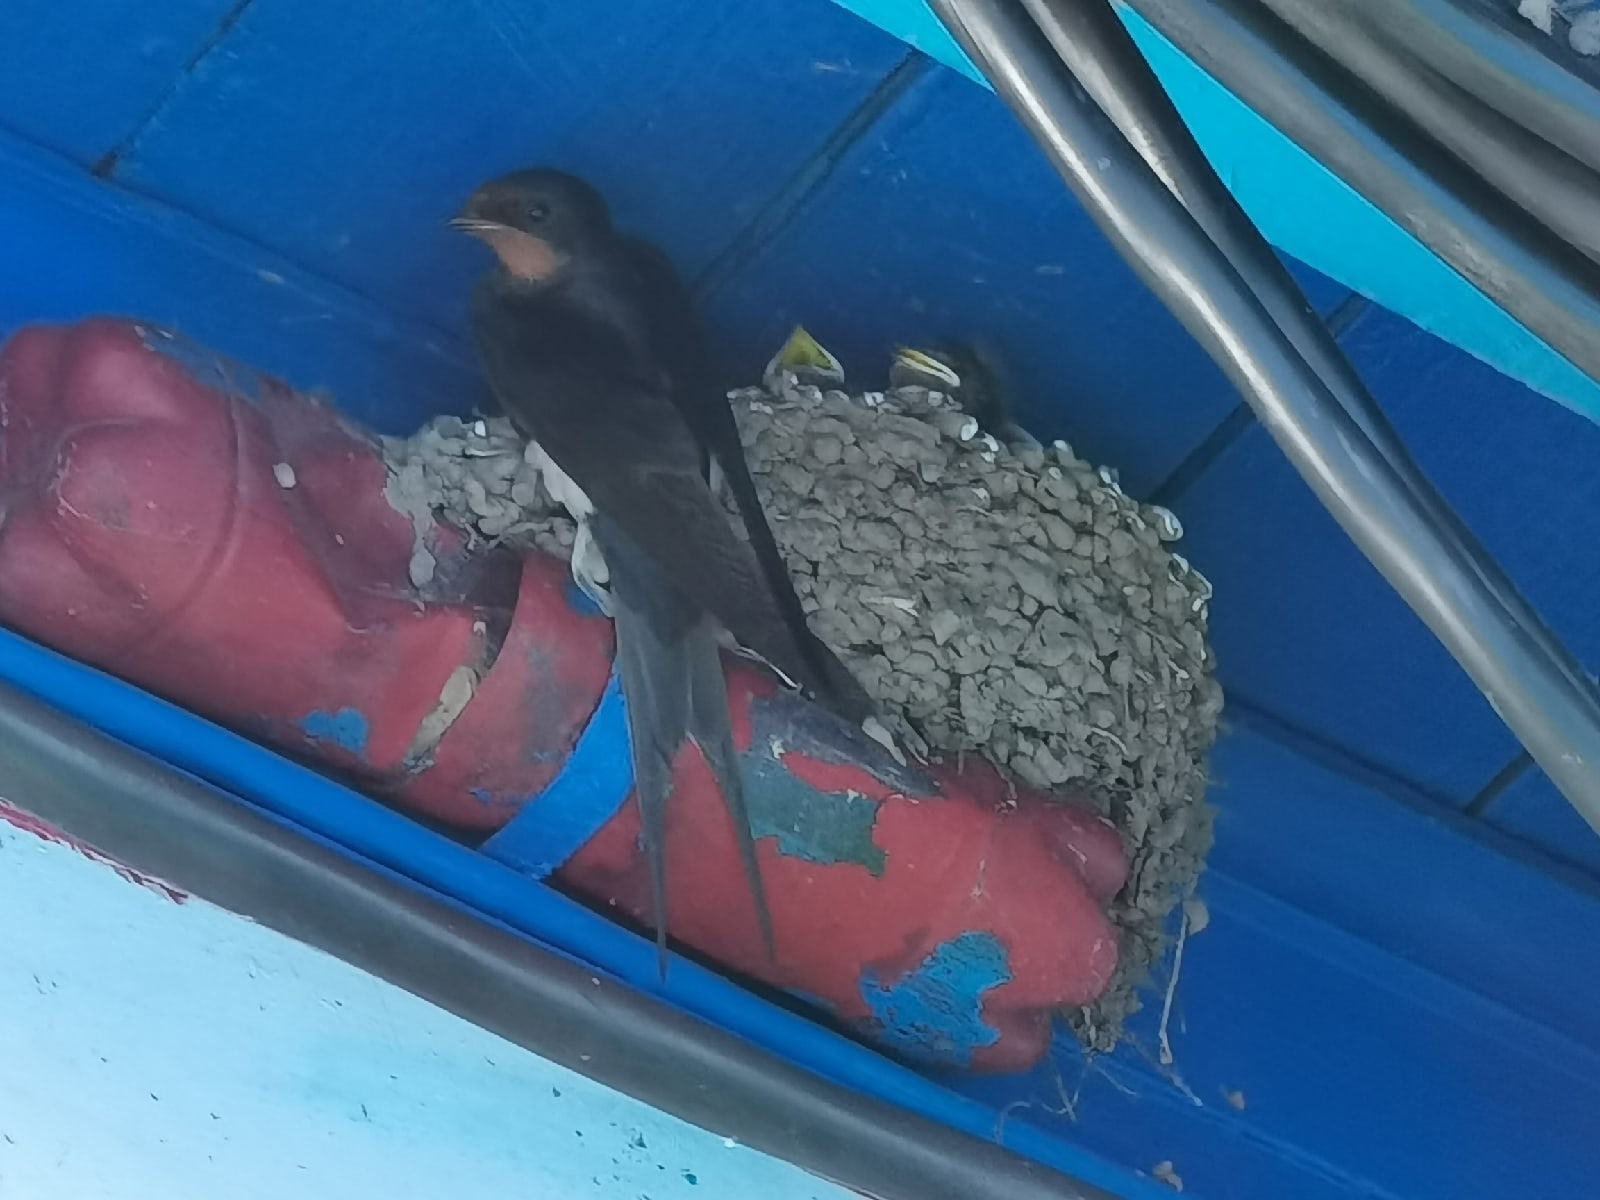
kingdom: Animalia
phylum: Chordata
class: Aves
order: Passeriformes
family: Hirundinidae
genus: Hirundo
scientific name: Hirundo rustica
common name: Barn swallow
